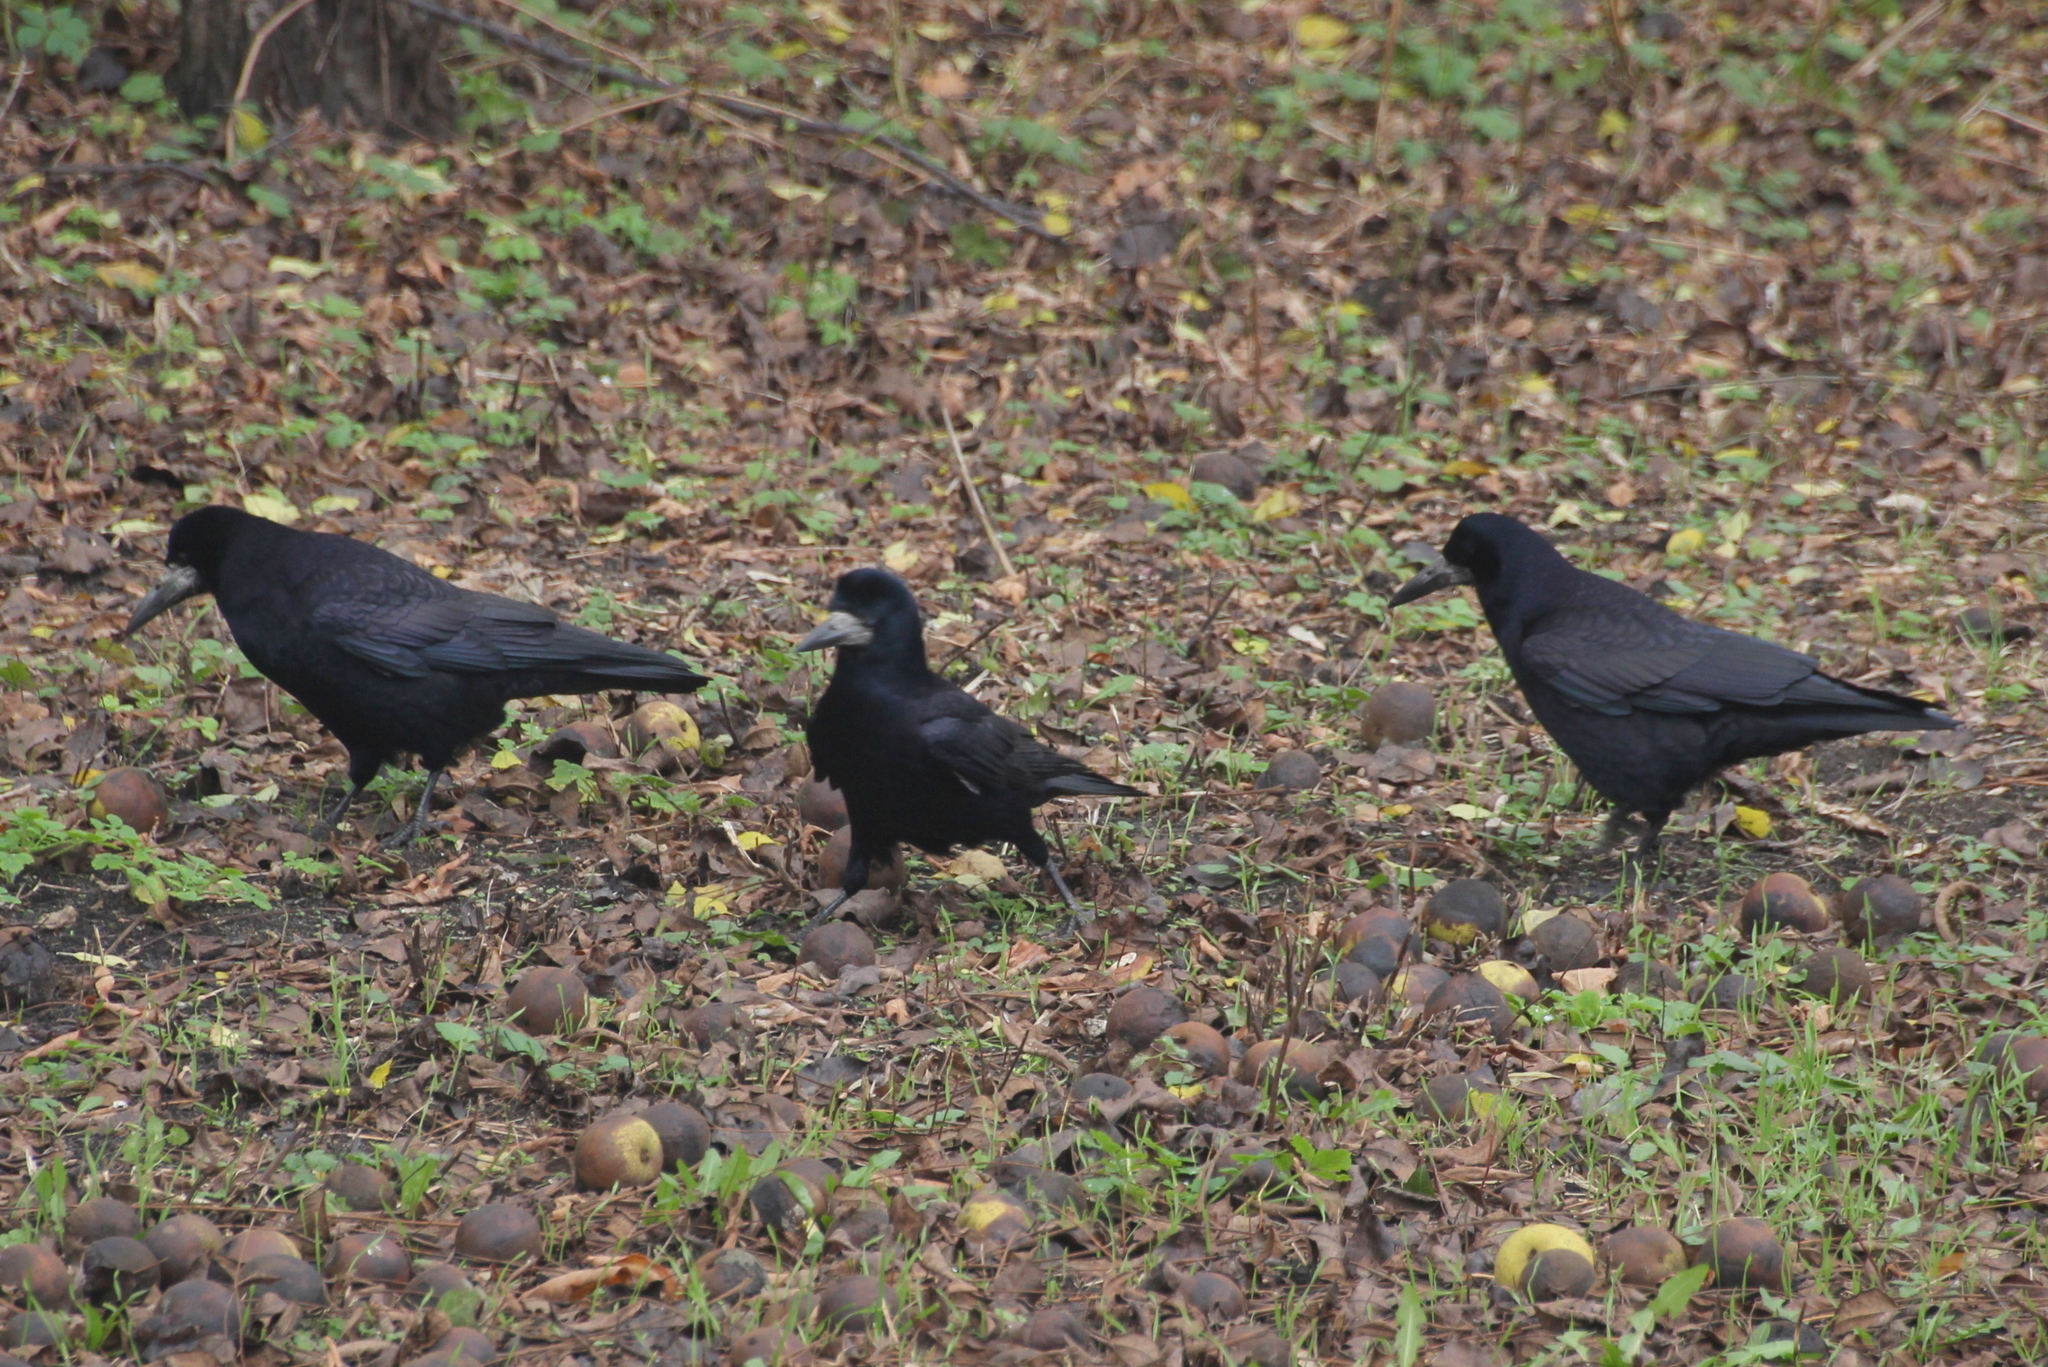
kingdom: Animalia
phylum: Chordata
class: Aves
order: Passeriformes
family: Corvidae
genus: Corvus
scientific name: Corvus frugilegus
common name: Rook
